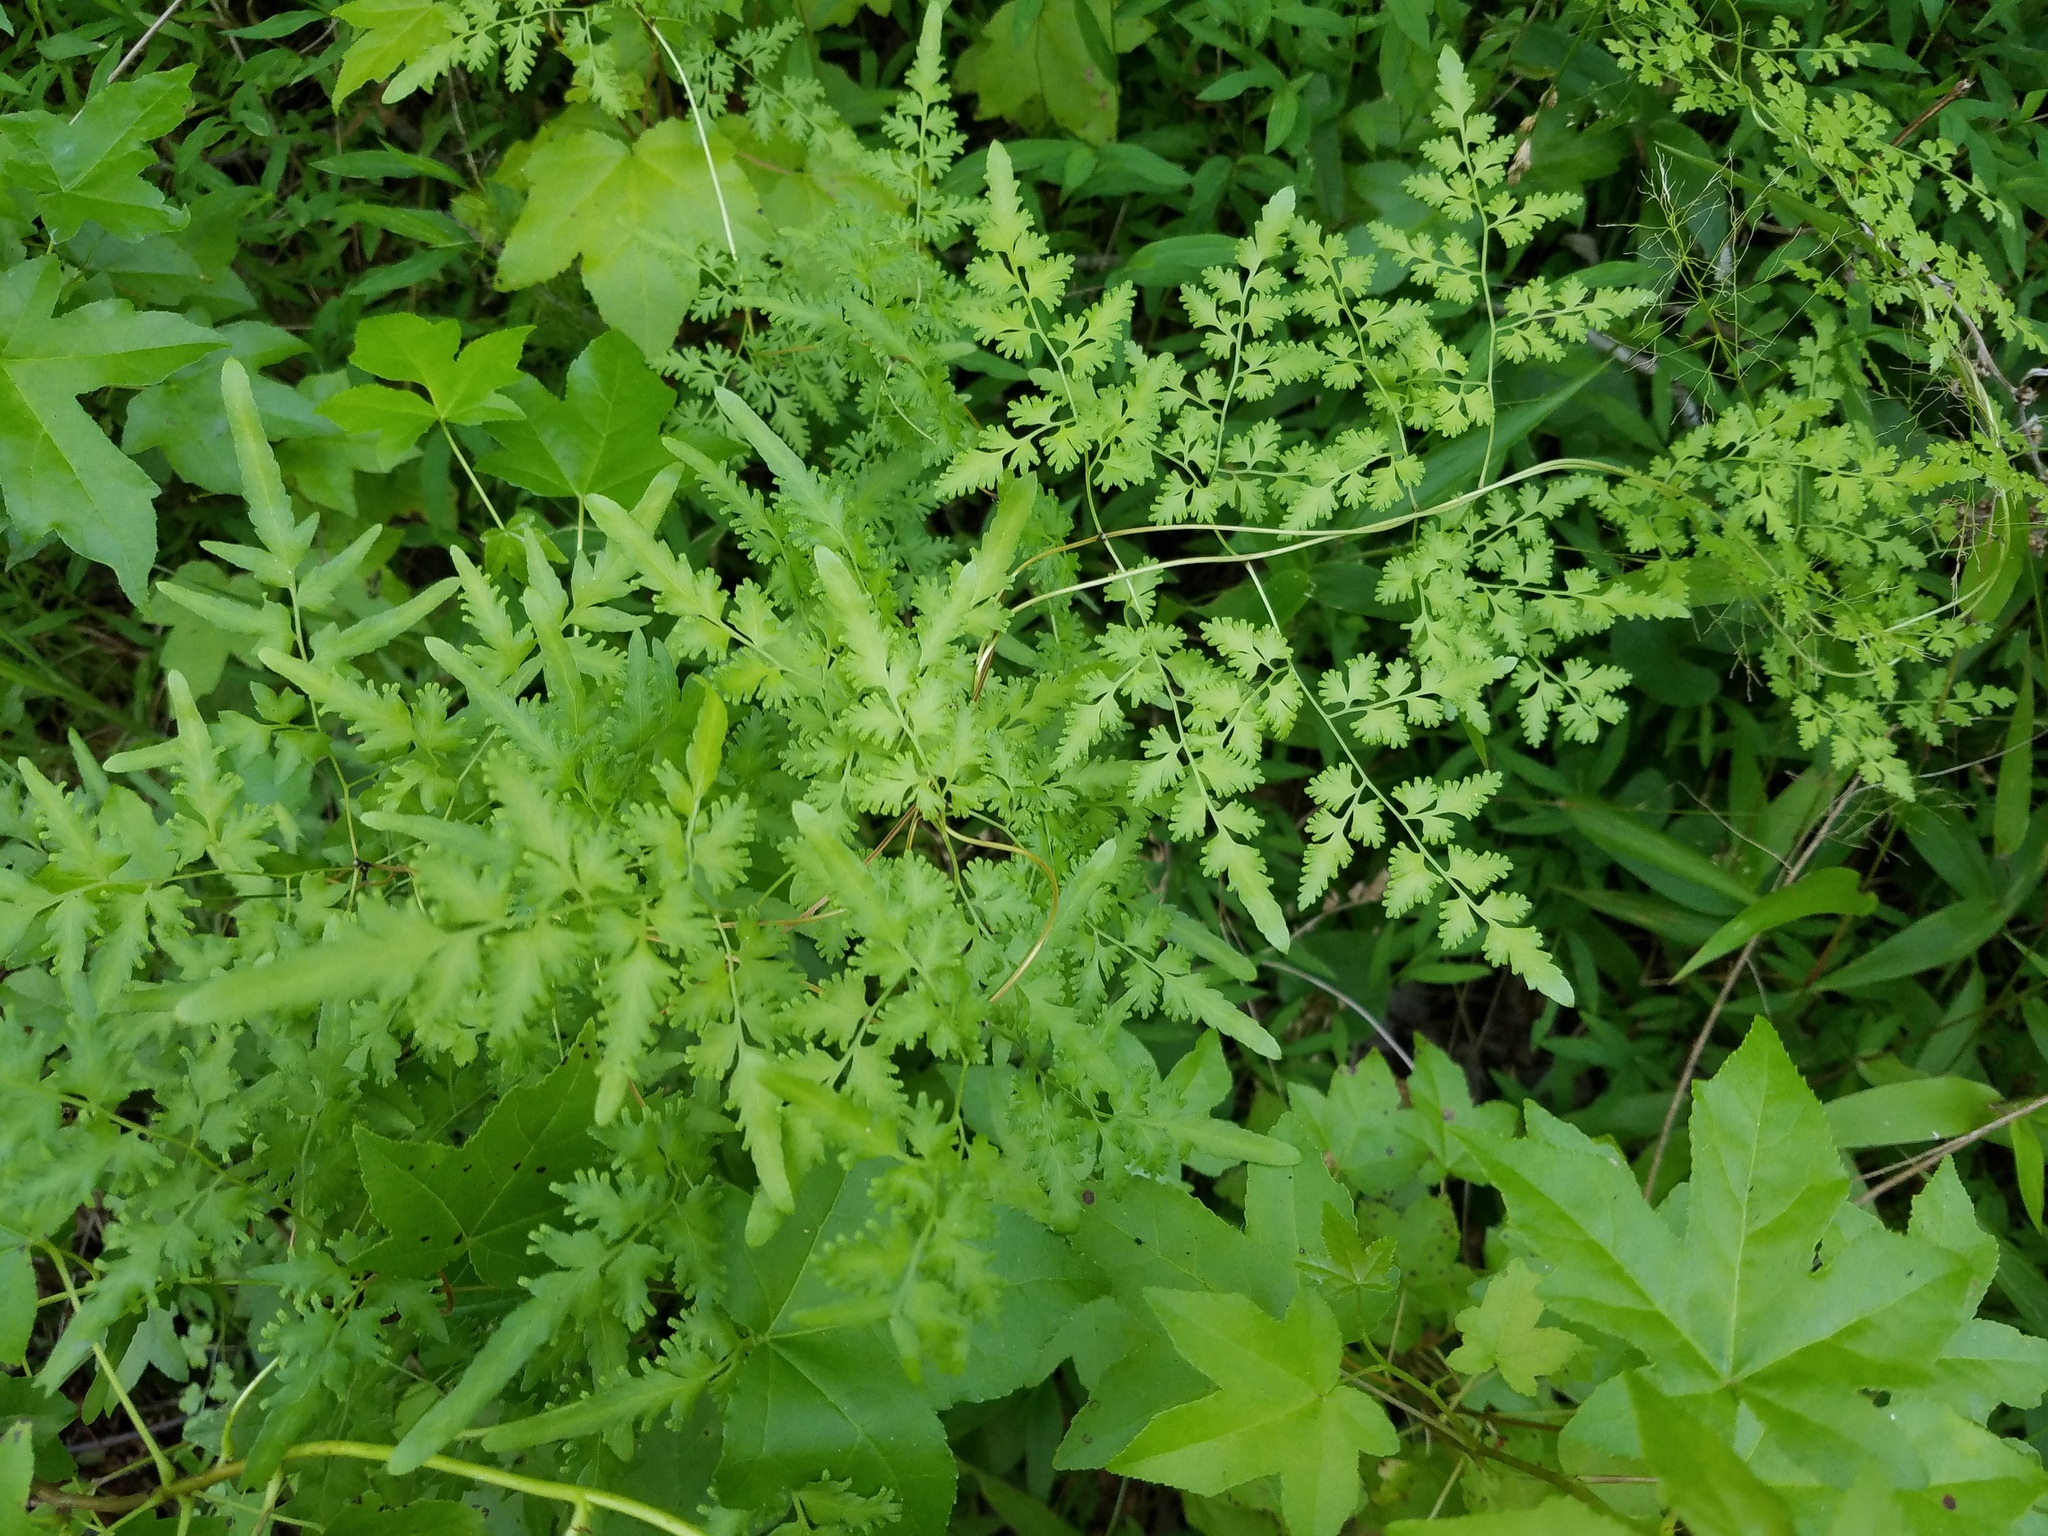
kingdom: Plantae
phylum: Tracheophyta
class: Polypodiopsida
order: Schizaeales
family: Lygodiaceae
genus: Lygodium
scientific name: Lygodium japonicum
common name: Japanese climbing fern
